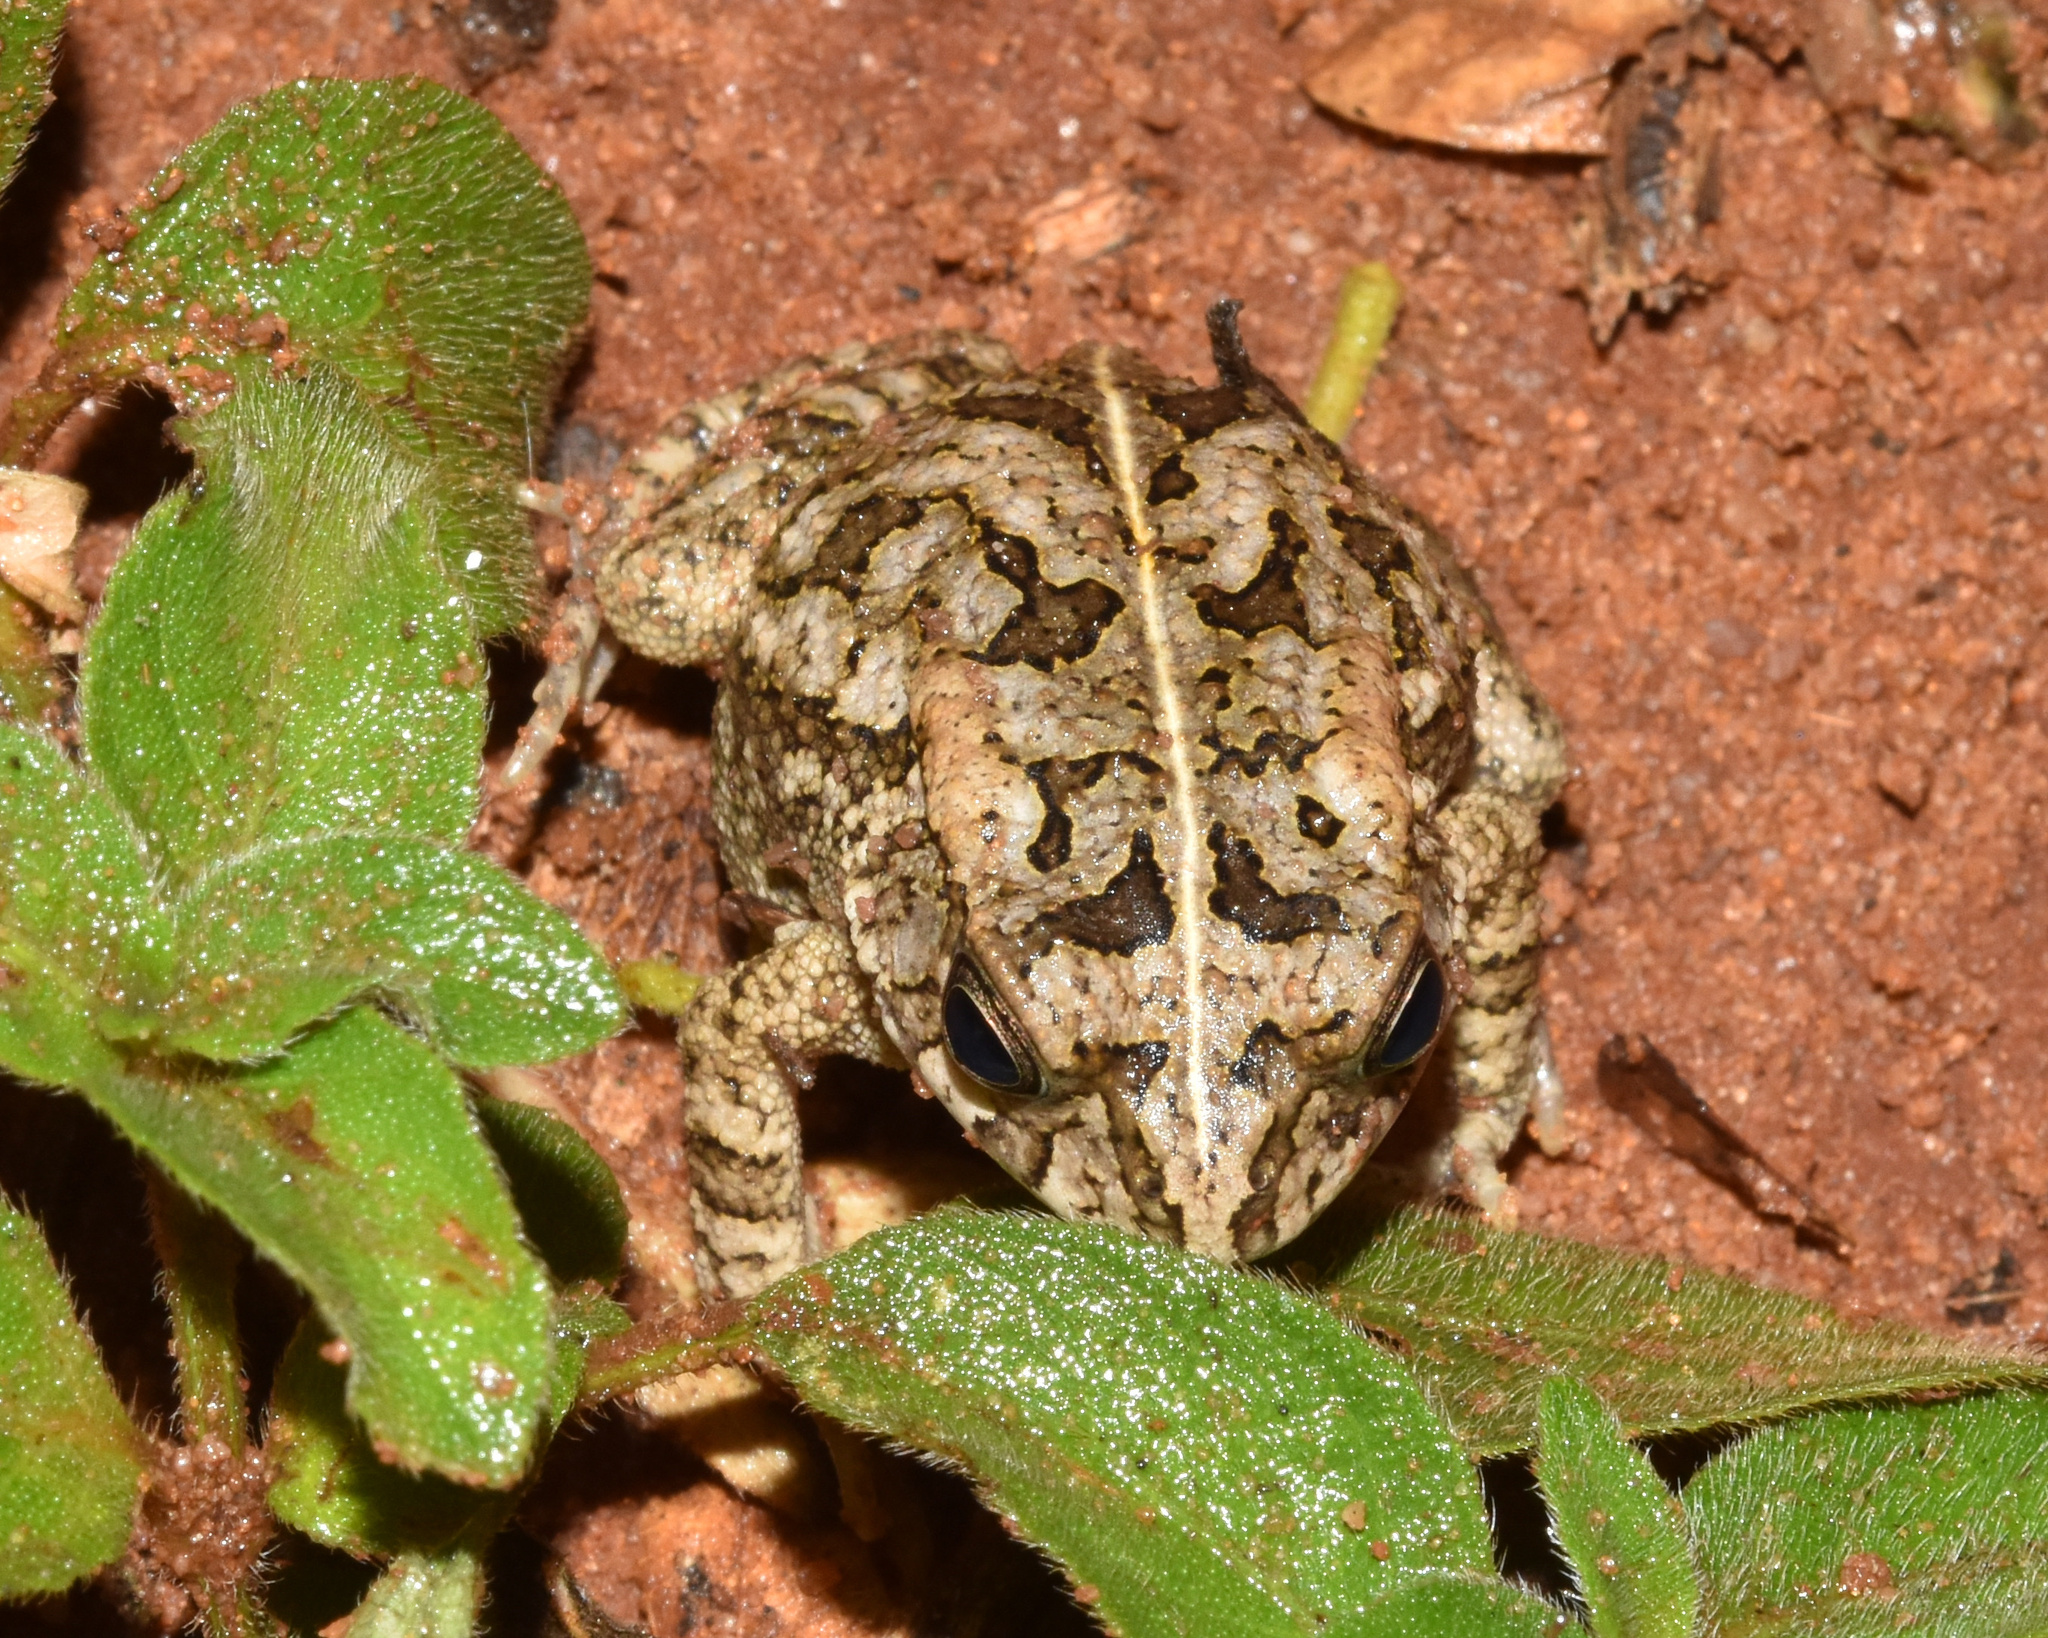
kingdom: Animalia
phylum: Chordata
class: Amphibia
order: Anura
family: Bufonidae
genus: Sclerophrys
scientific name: Sclerophrys gutturalis
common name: African common toad
